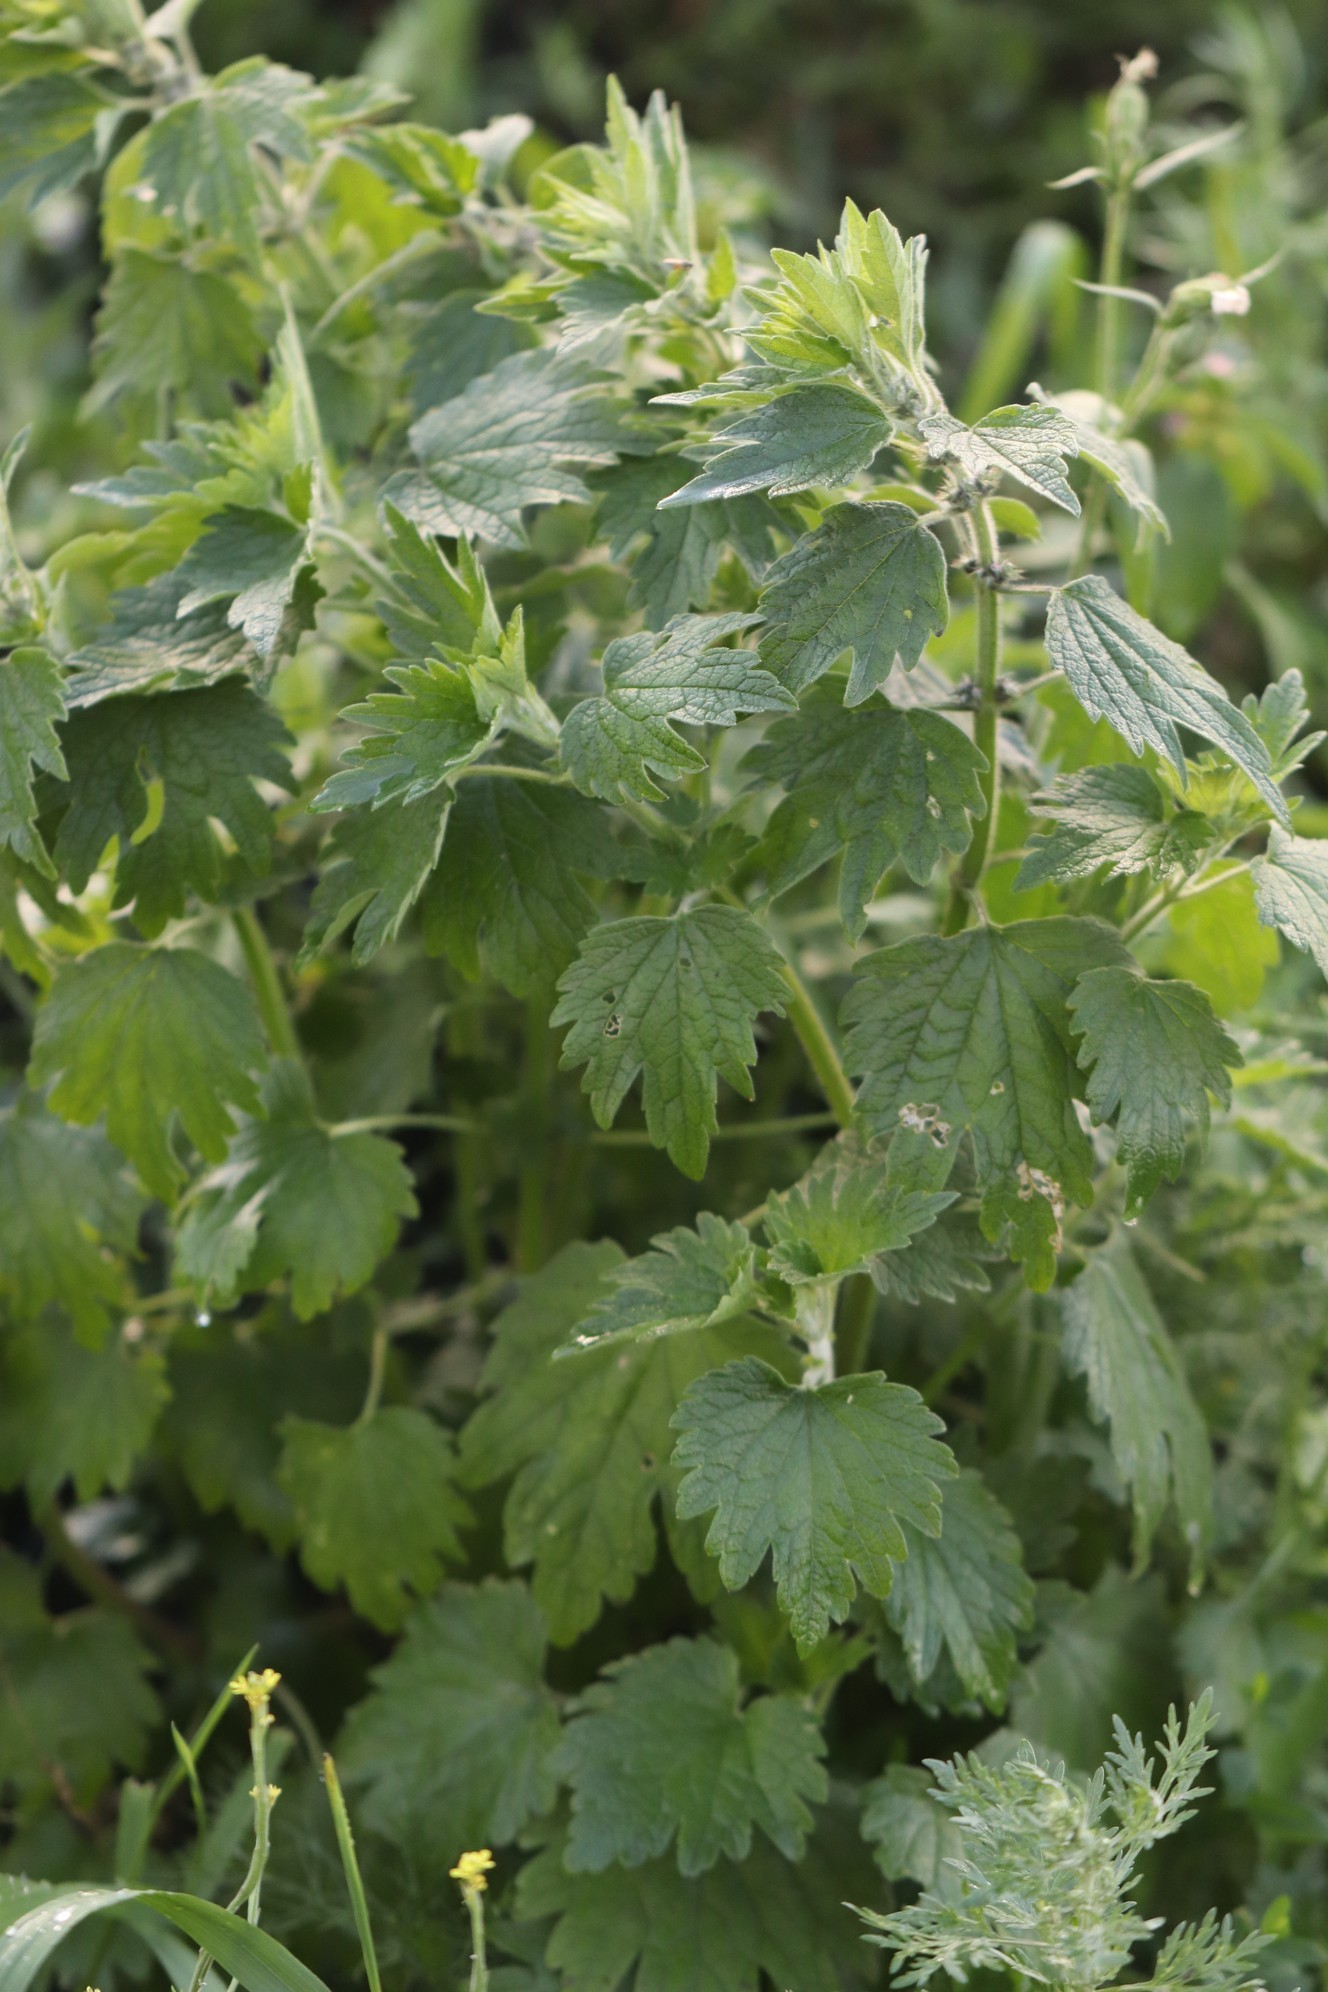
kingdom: Plantae
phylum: Tracheophyta
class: Magnoliopsida
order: Lamiales
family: Lamiaceae
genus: Leonurus
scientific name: Leonurus quinquelobatus
